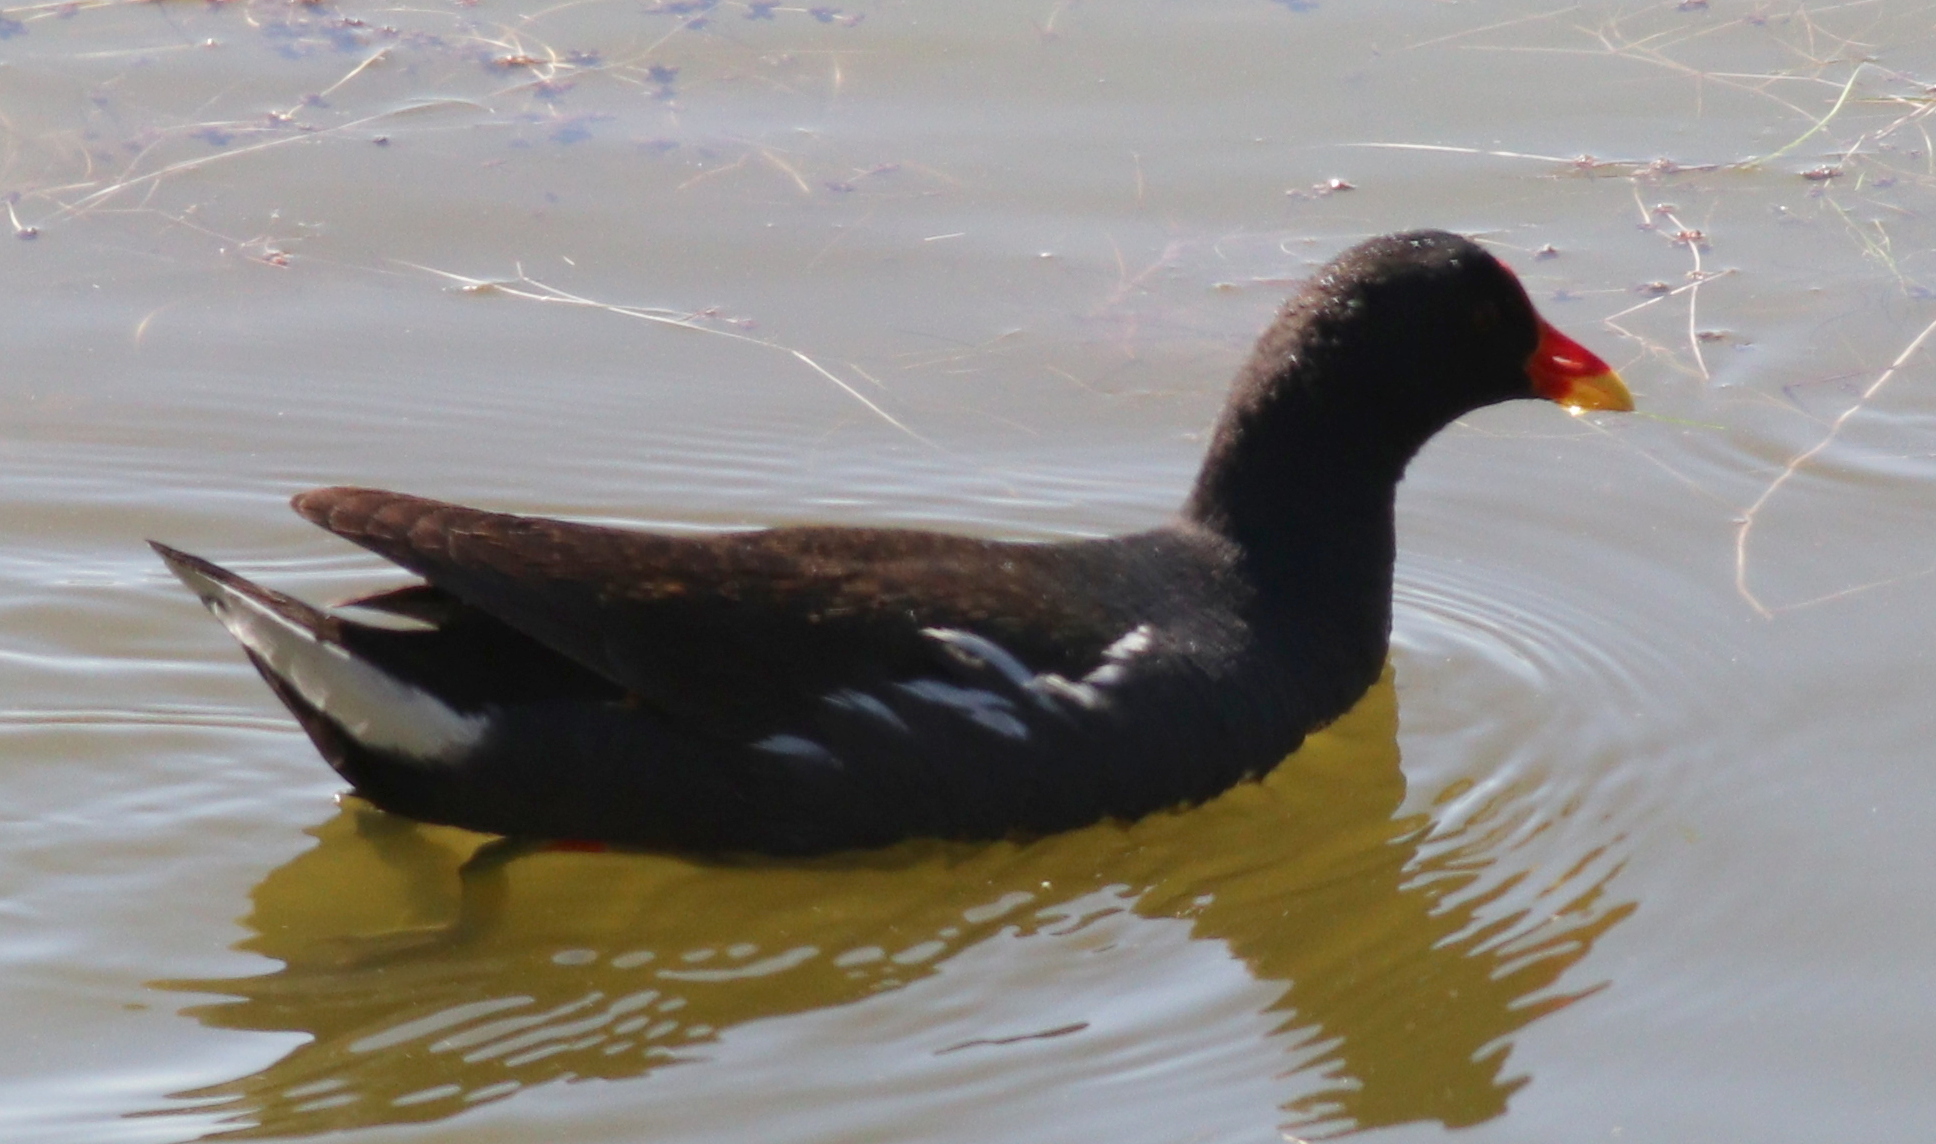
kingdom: Animalia
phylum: Chordata
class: Aves
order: Gruiformes
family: Rallidae
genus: Gallinula
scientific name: Gallinula chloropus
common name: Common moorhen
